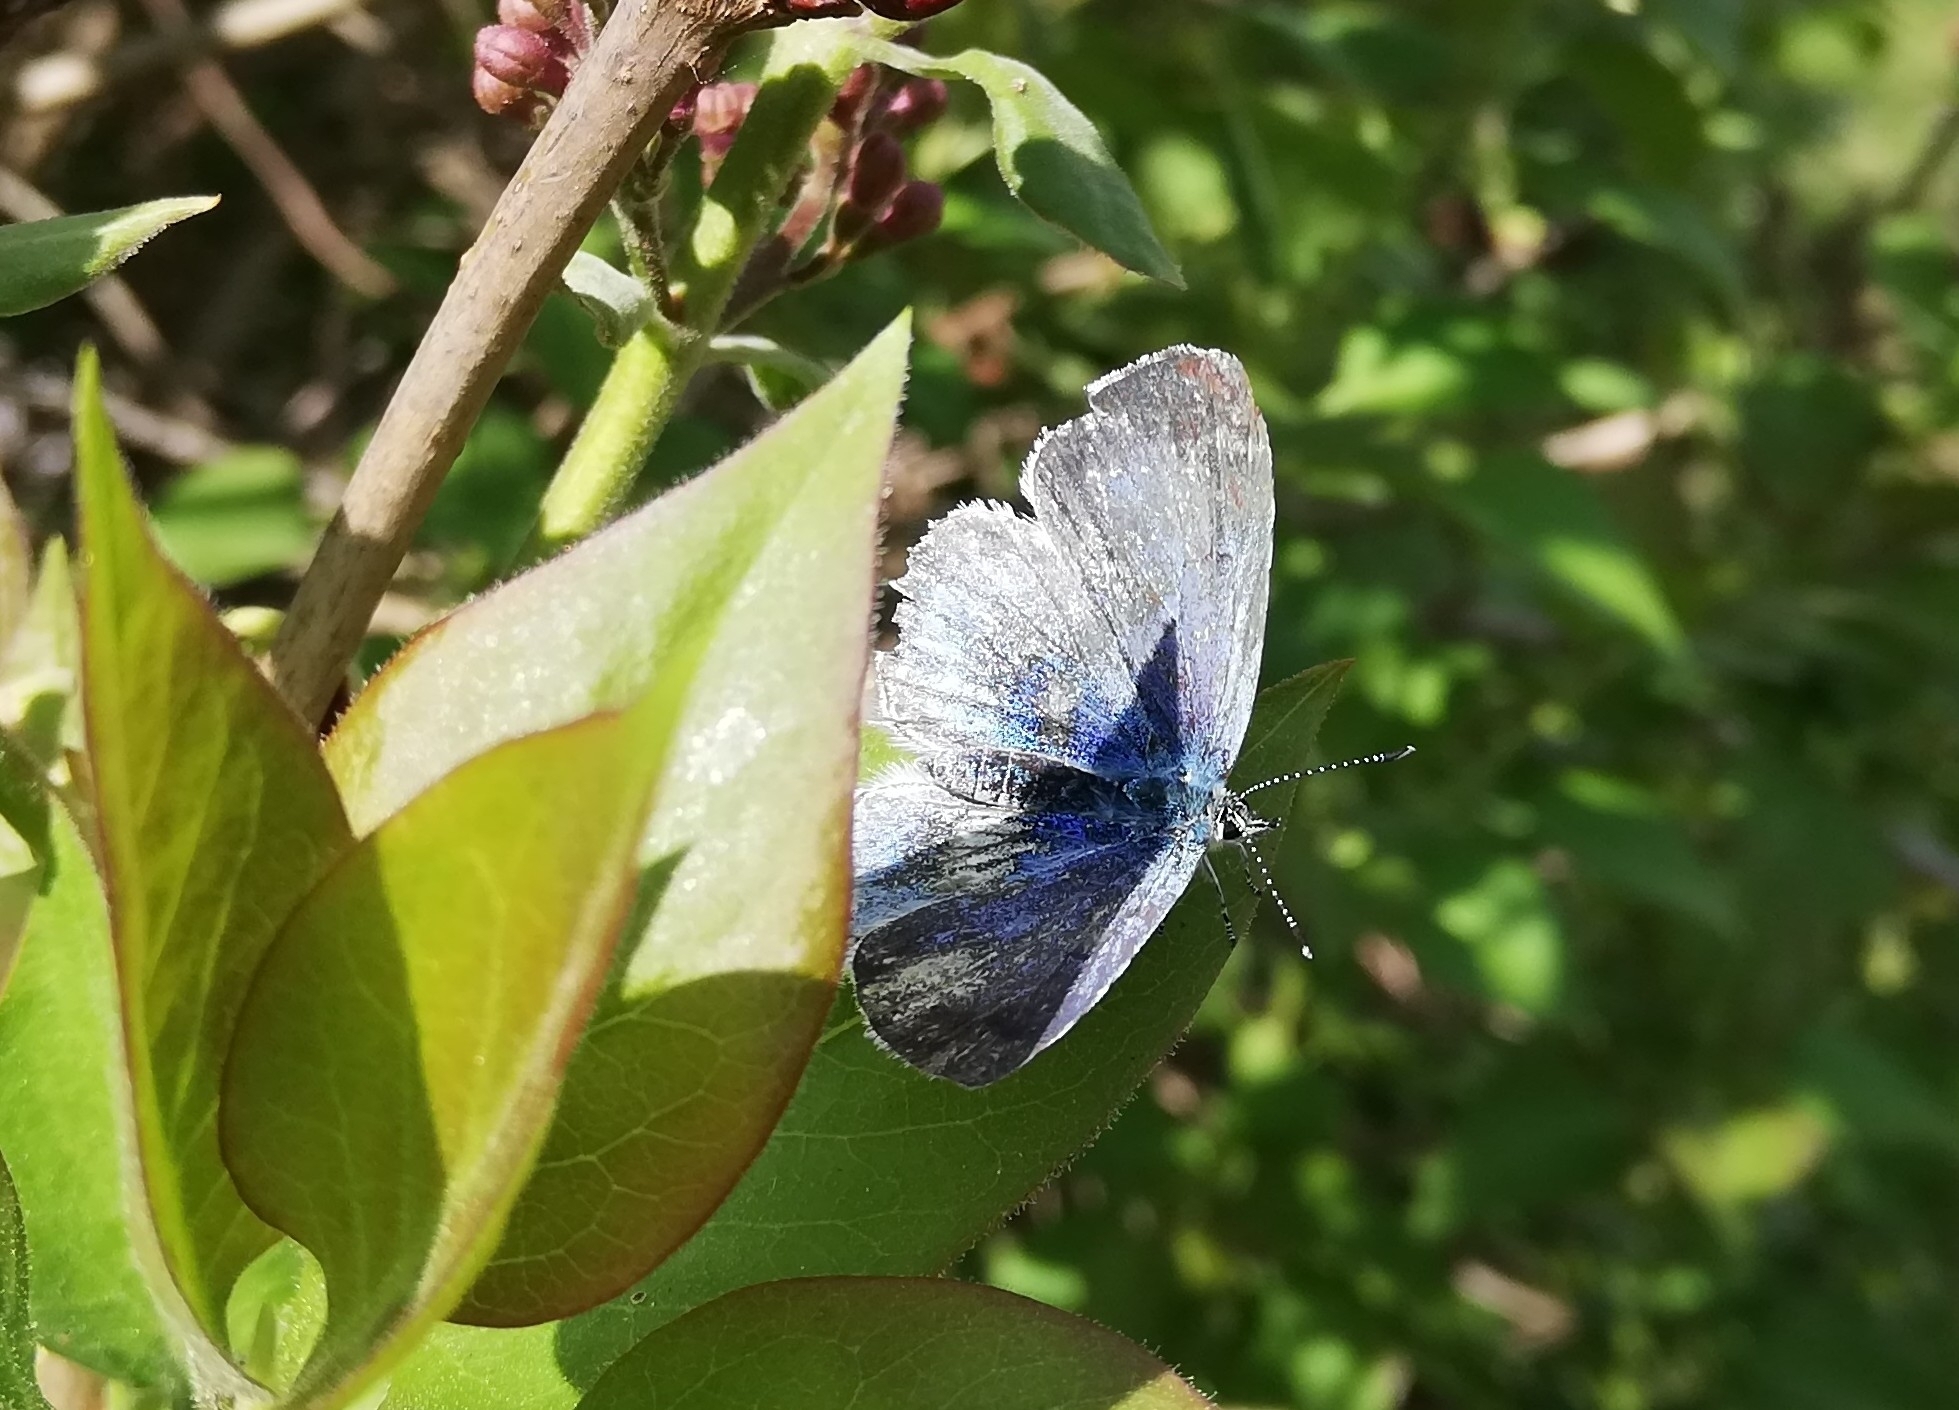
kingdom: Animalia
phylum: Arthropoda
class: Insecta
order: Lepidoptera
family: Lycaenidae
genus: Celastrina
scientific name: Celastrina argiolus
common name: Holly blue
